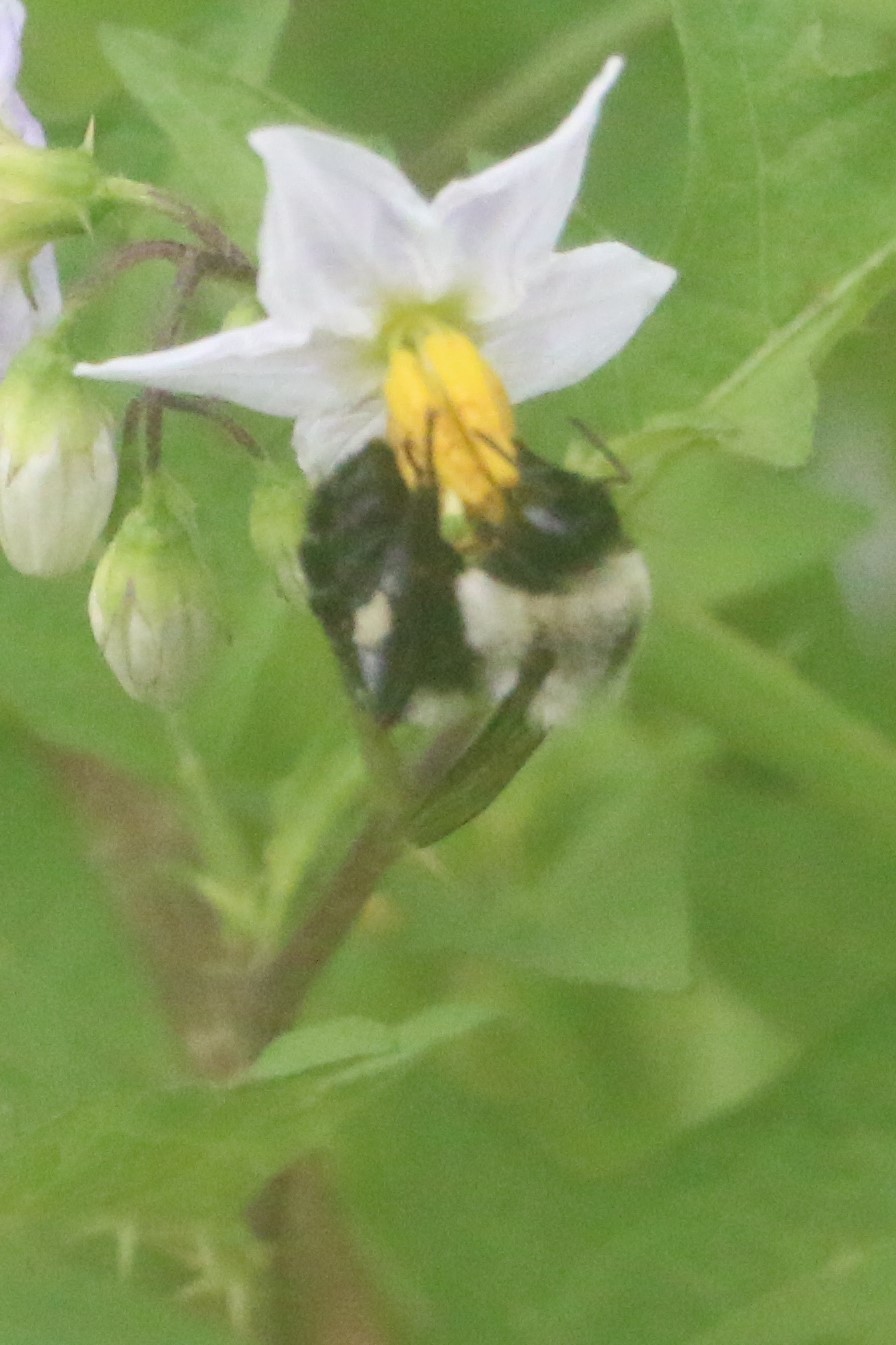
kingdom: Animalia
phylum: Arthropoda
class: Insecta
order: Hymenoptera
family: Apidae
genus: Bombus
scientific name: Bombus impatiens
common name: Common eastern bumble bee
